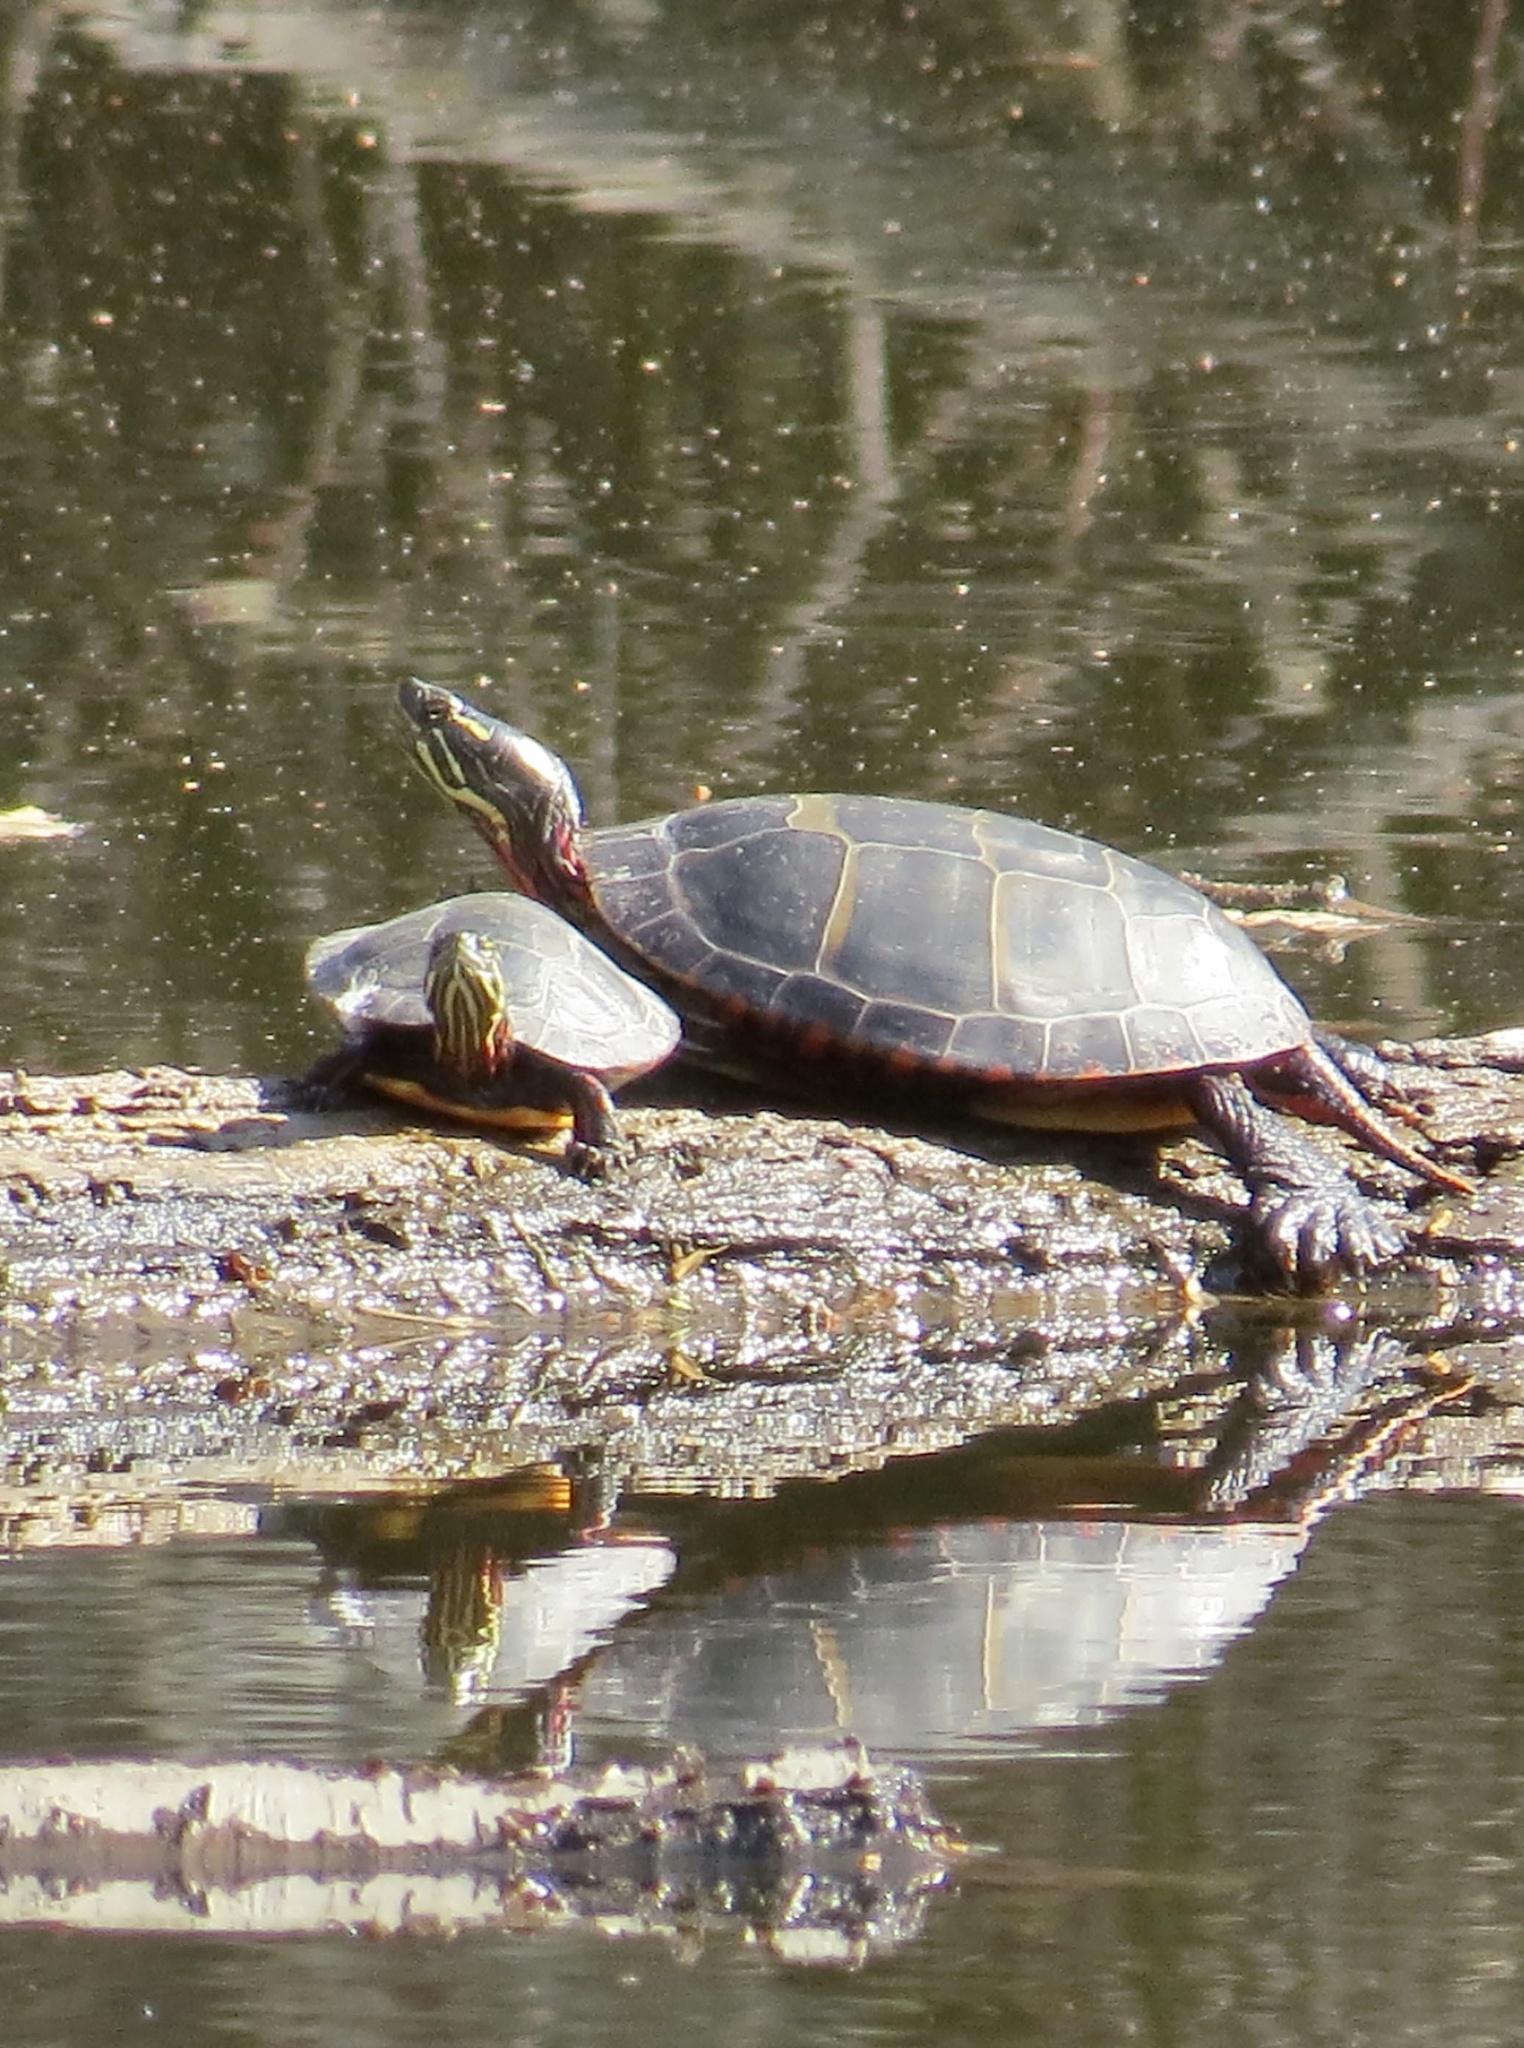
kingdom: Animalia
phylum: Chordata
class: Testudines
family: Emydidae
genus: Chrysemys
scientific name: Chrysemys picta
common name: Painted turtle
